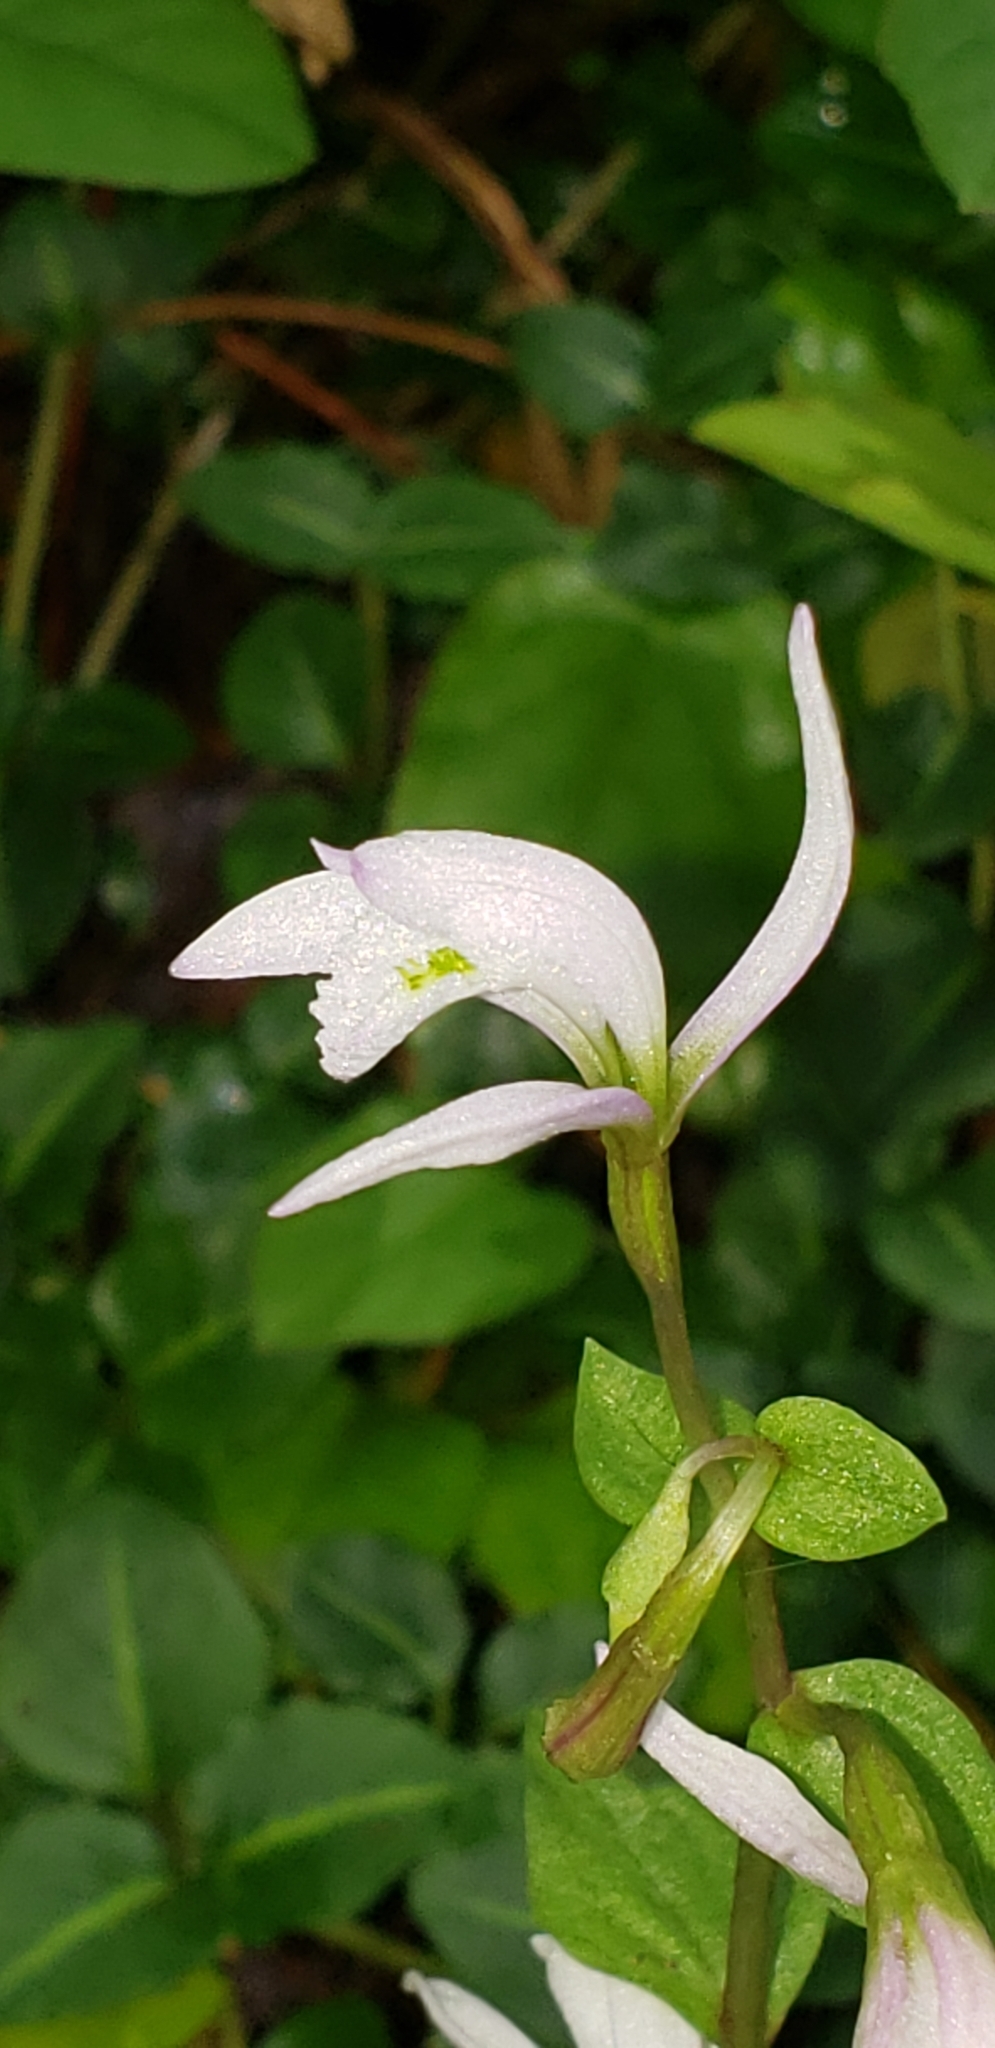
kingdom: Plantae
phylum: Tracheophyta
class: Liliopsida
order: Asparagales
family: Orchidaceae
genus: Triphora
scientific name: Triphora trianthophoros
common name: Three birds orchid
